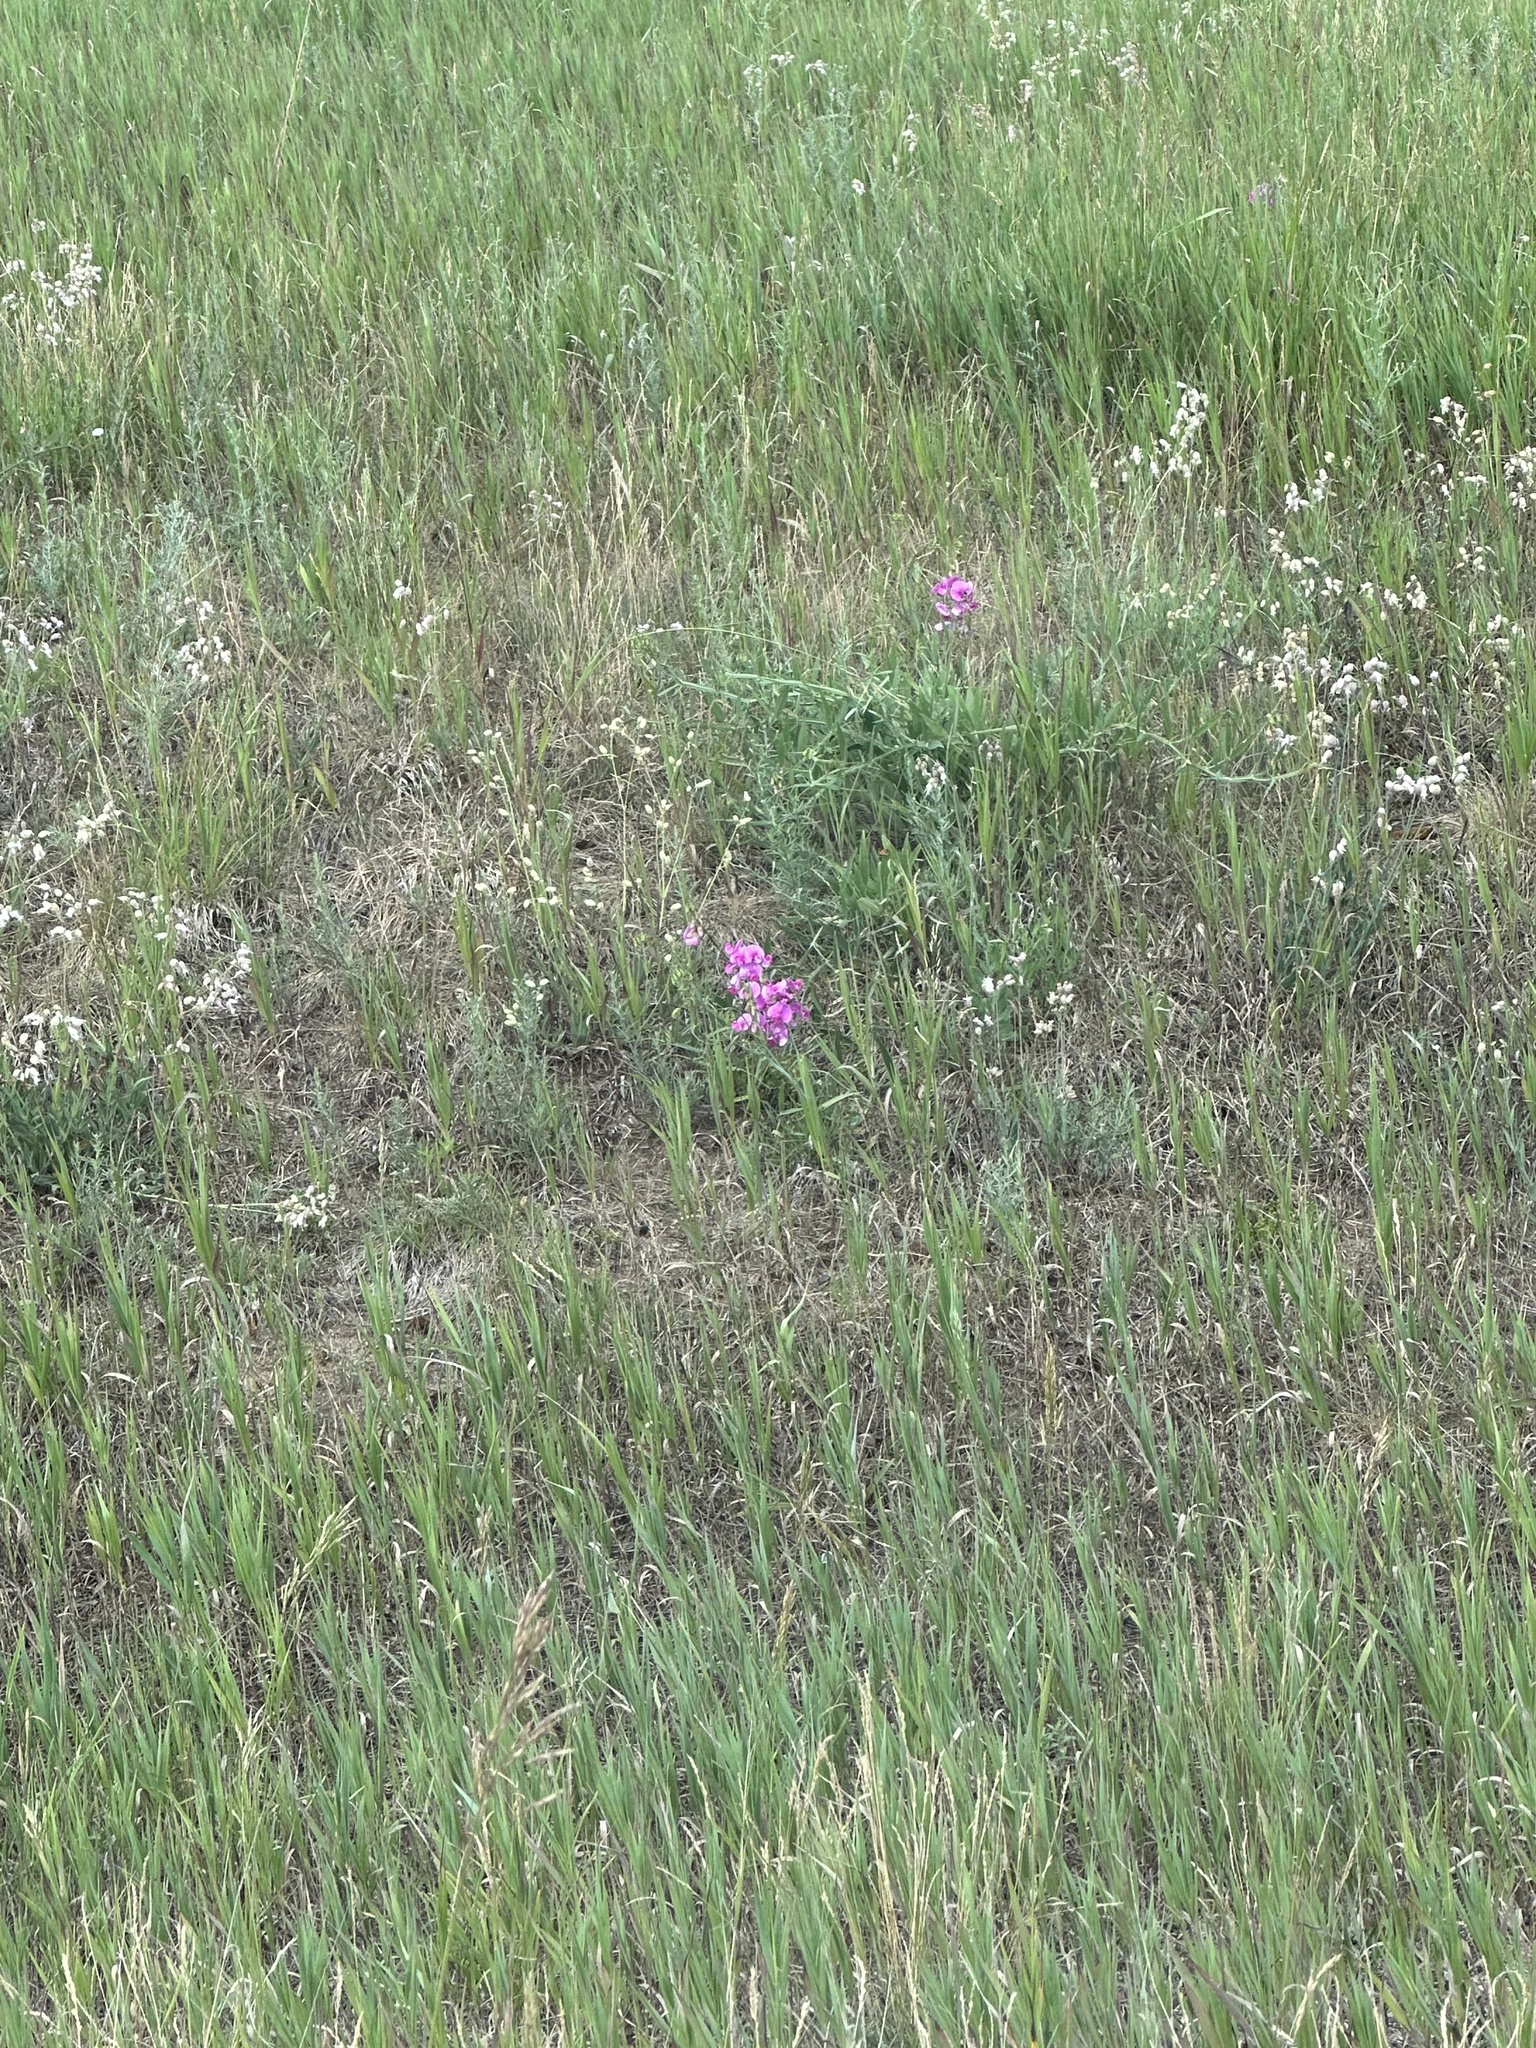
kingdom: Plantae
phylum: Tracheophyta
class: Magnoliopsida
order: Fabales
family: Fabaceae
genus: Lathyrus
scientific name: Lathyrus latifolius
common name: Perennial pea
